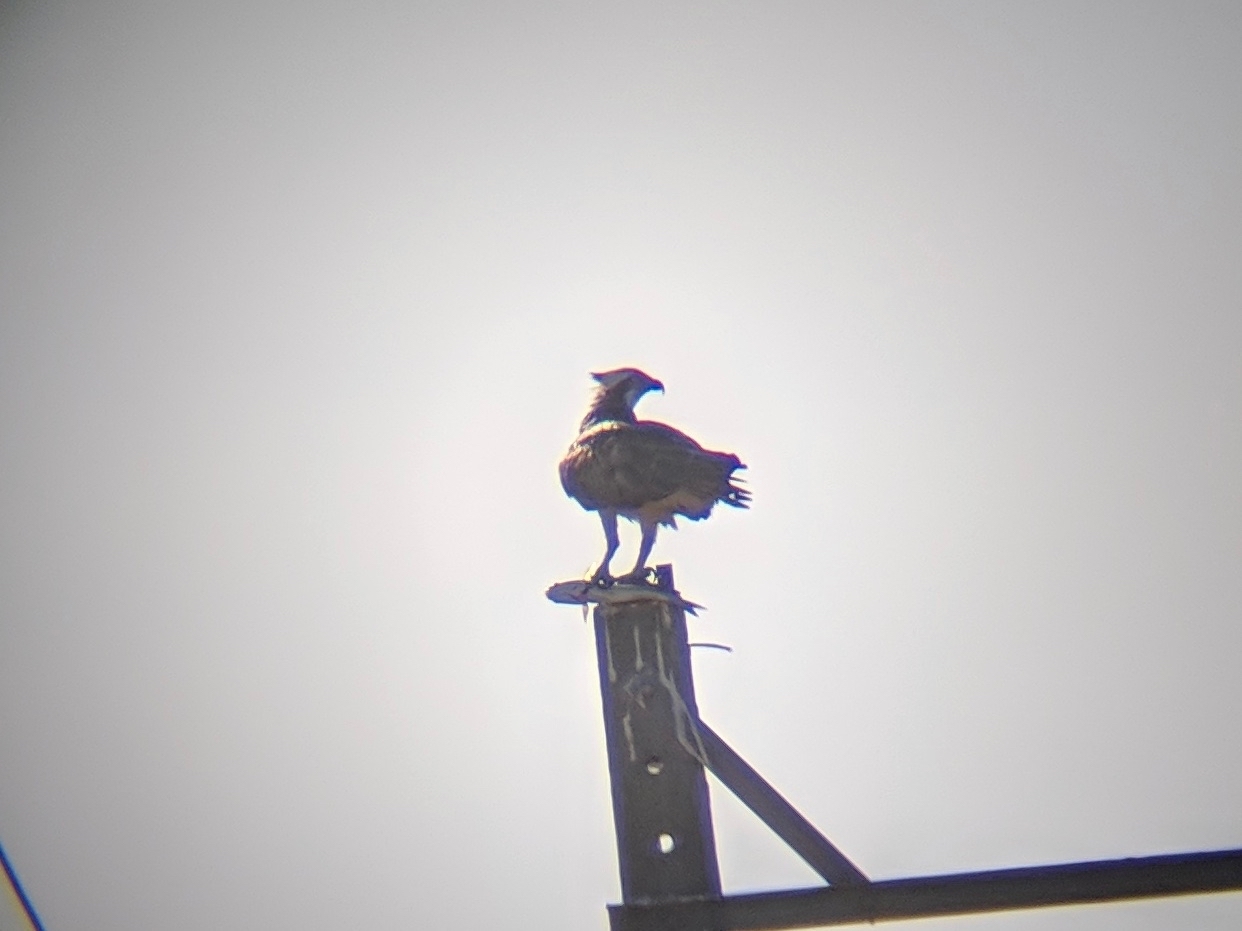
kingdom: Animalia
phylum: Chordata
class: Aves
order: Accipitriformes
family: Pandionidae
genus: Pandion
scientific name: Pandion haliaetus
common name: Osprey
